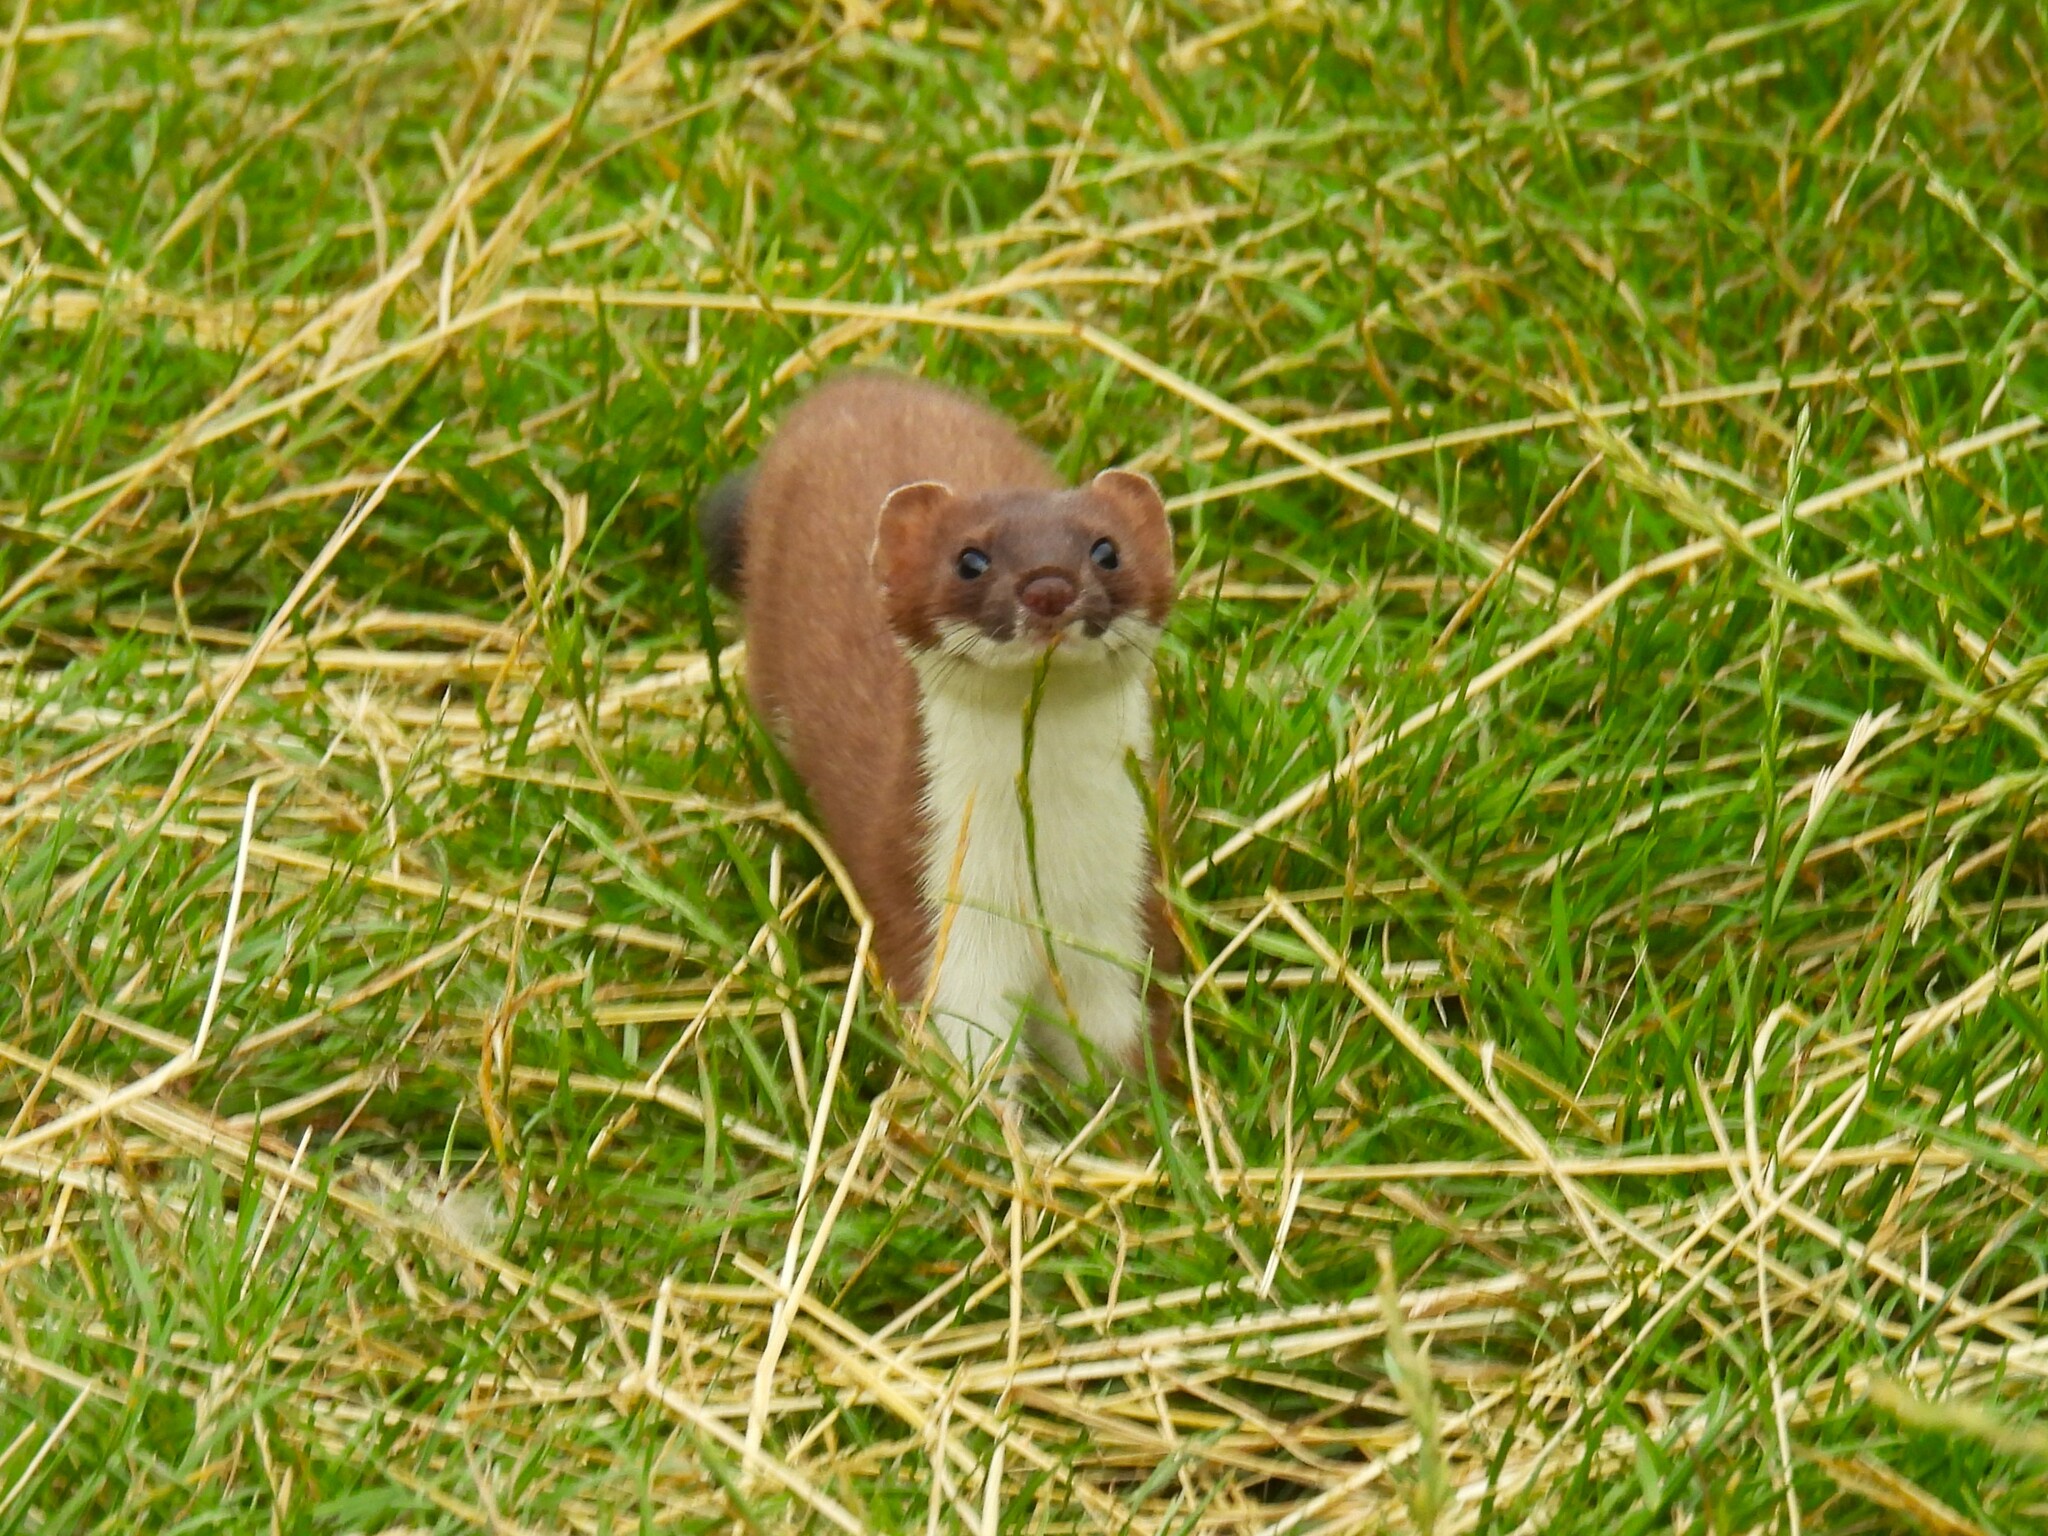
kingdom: Animalia
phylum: Chordata
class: Mammalia
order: Carnivora
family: Mustelidae
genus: Mustela
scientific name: Mustela erminea
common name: Stoat
